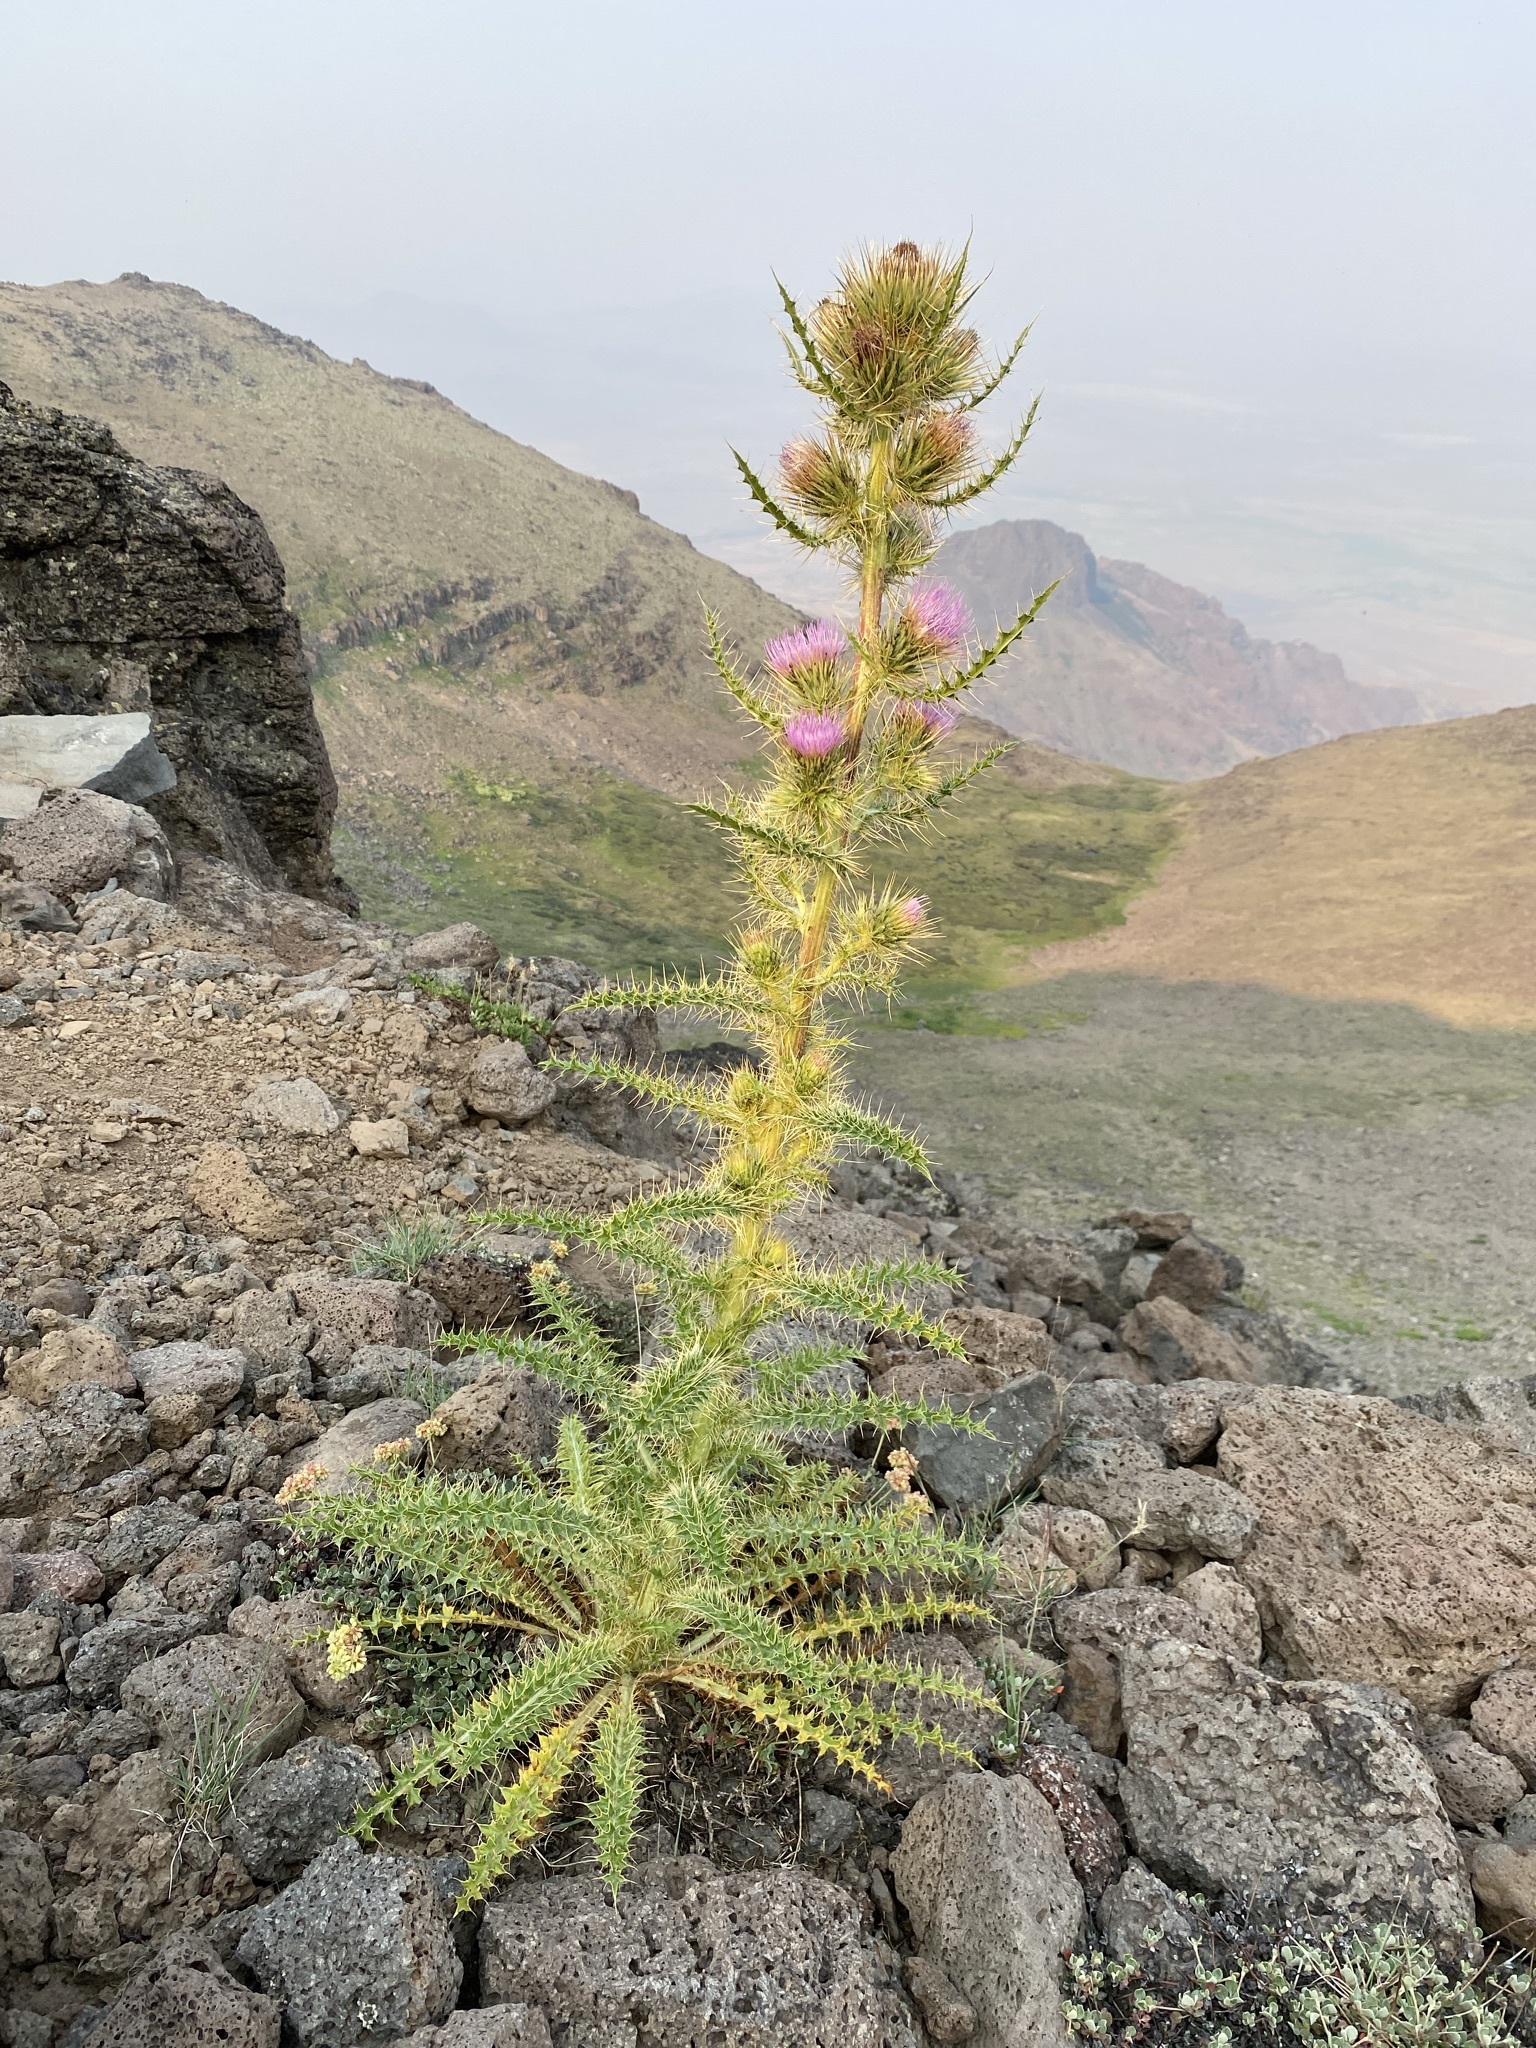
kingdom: Plantae
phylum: Tracheophyta
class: Magnoliopsida
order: Asterales
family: Asteraceae
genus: Cirsium
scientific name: Cirsium peckii
